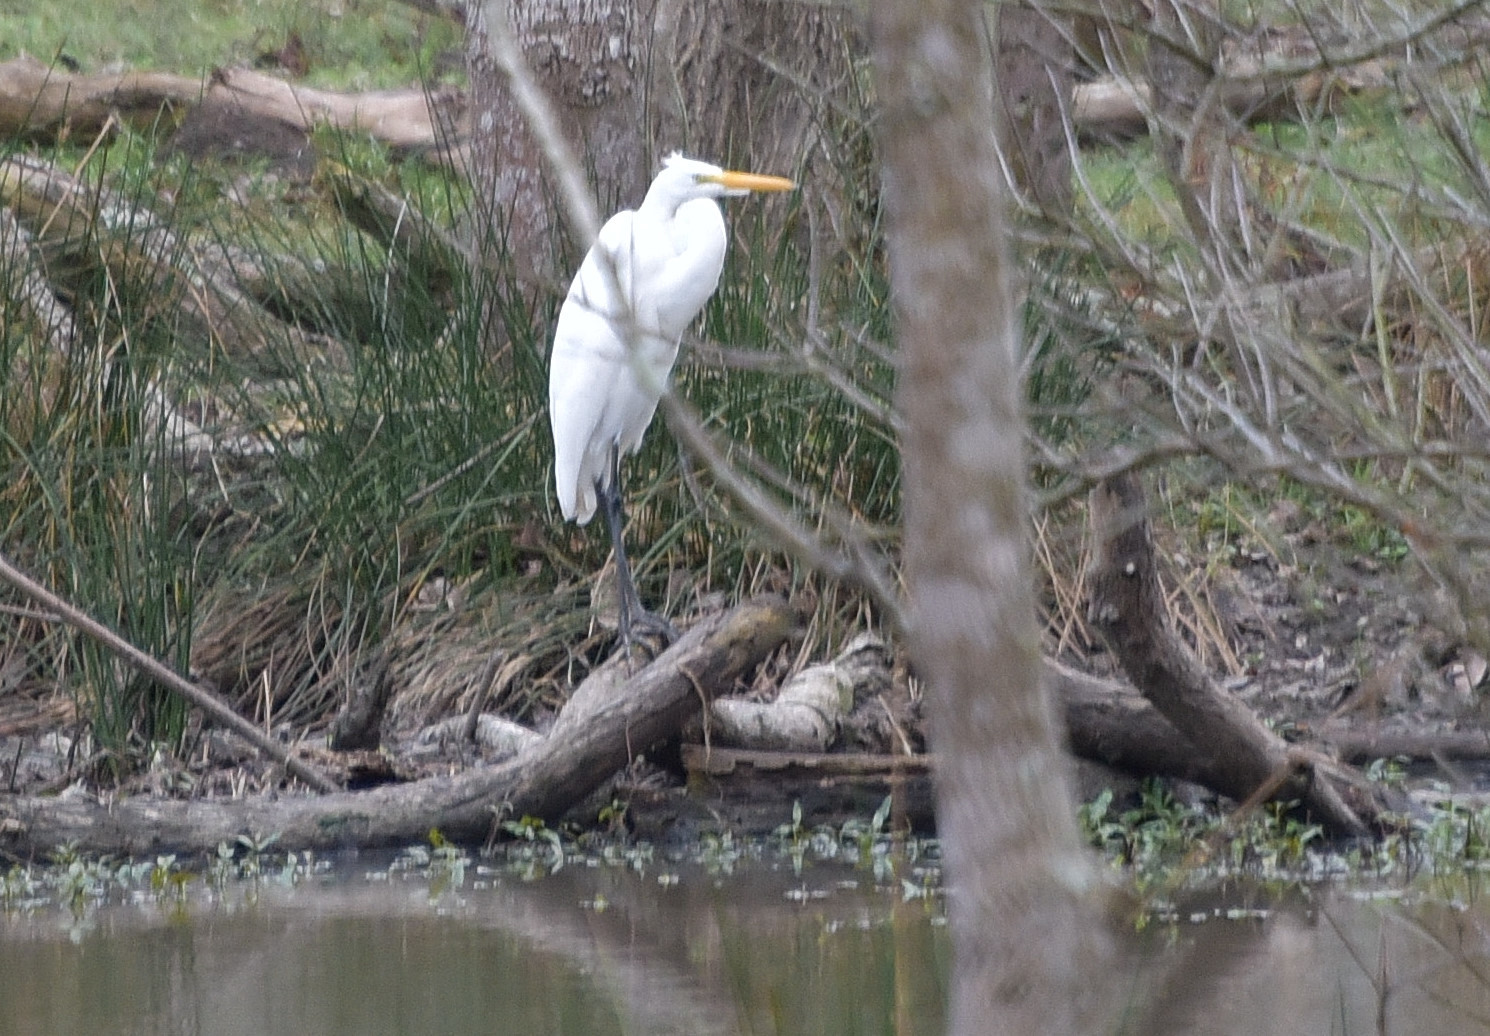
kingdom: Animalia
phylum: Chordata
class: Aves
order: Pelecaniformes
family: Ardeidae
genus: Ardea
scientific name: Ardea alba
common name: Great egret
